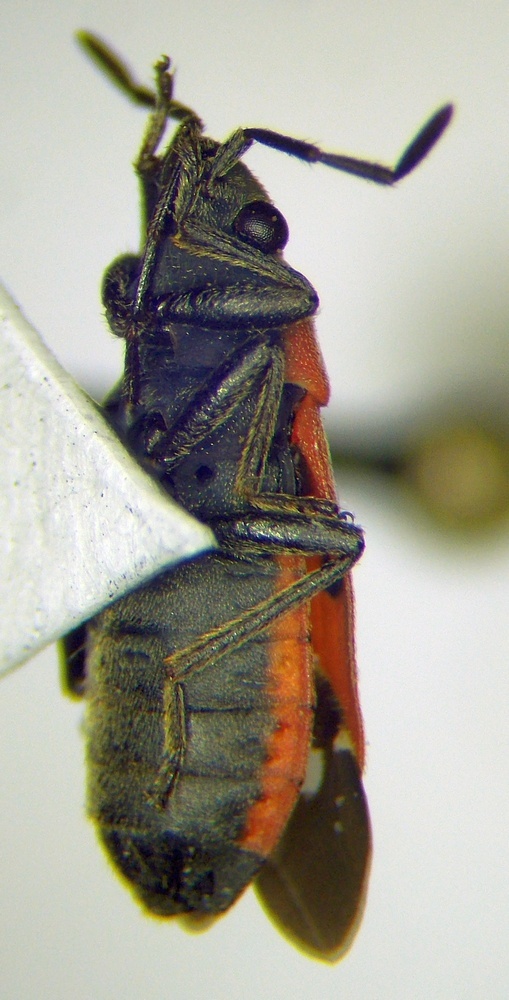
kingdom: Animalia
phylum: Arthropoda
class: Insecta
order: Hemiptera
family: Lygaeidae
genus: Melanocoryphus
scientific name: Melanocoryphus tristrami
